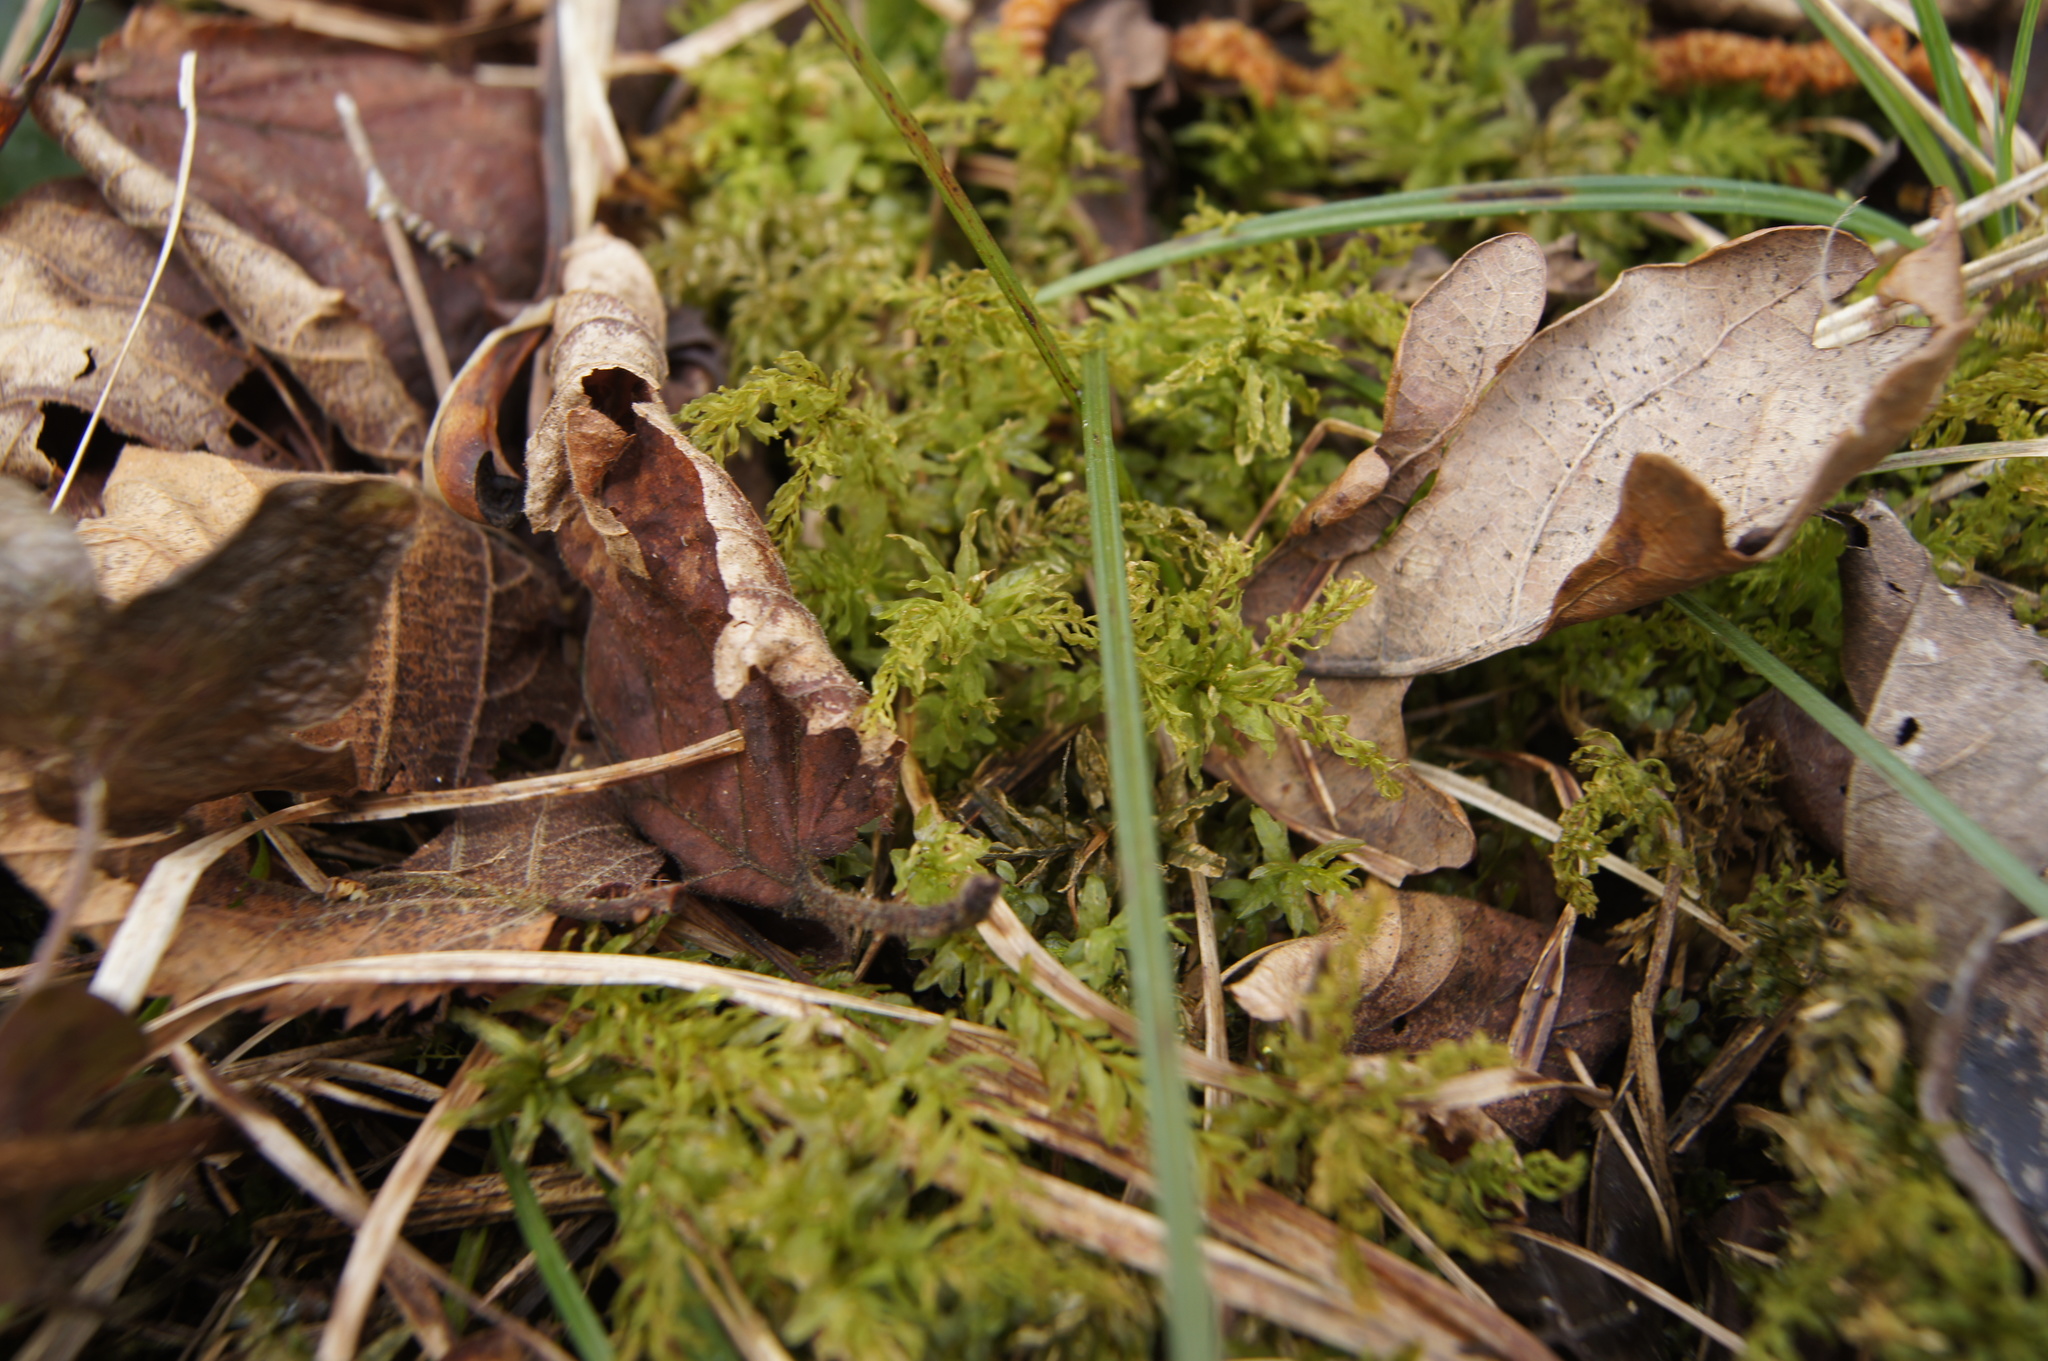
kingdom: Plantae
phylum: Bryophyta
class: Bryopsida
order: Bryales
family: Mniaceae
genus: Plagiomnium
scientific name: Plagiomnium undulatum
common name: Hart's-tongue thyme-moss
